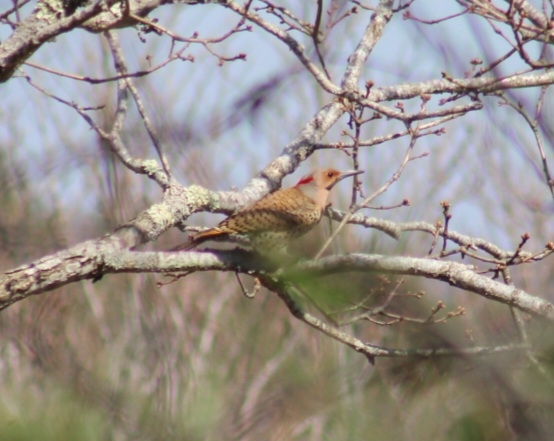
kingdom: Animalia
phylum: Chordata
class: Aves
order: Piciformes
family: Picidae
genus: Colaptes
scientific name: Colaptes auratus
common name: Northern flicker
